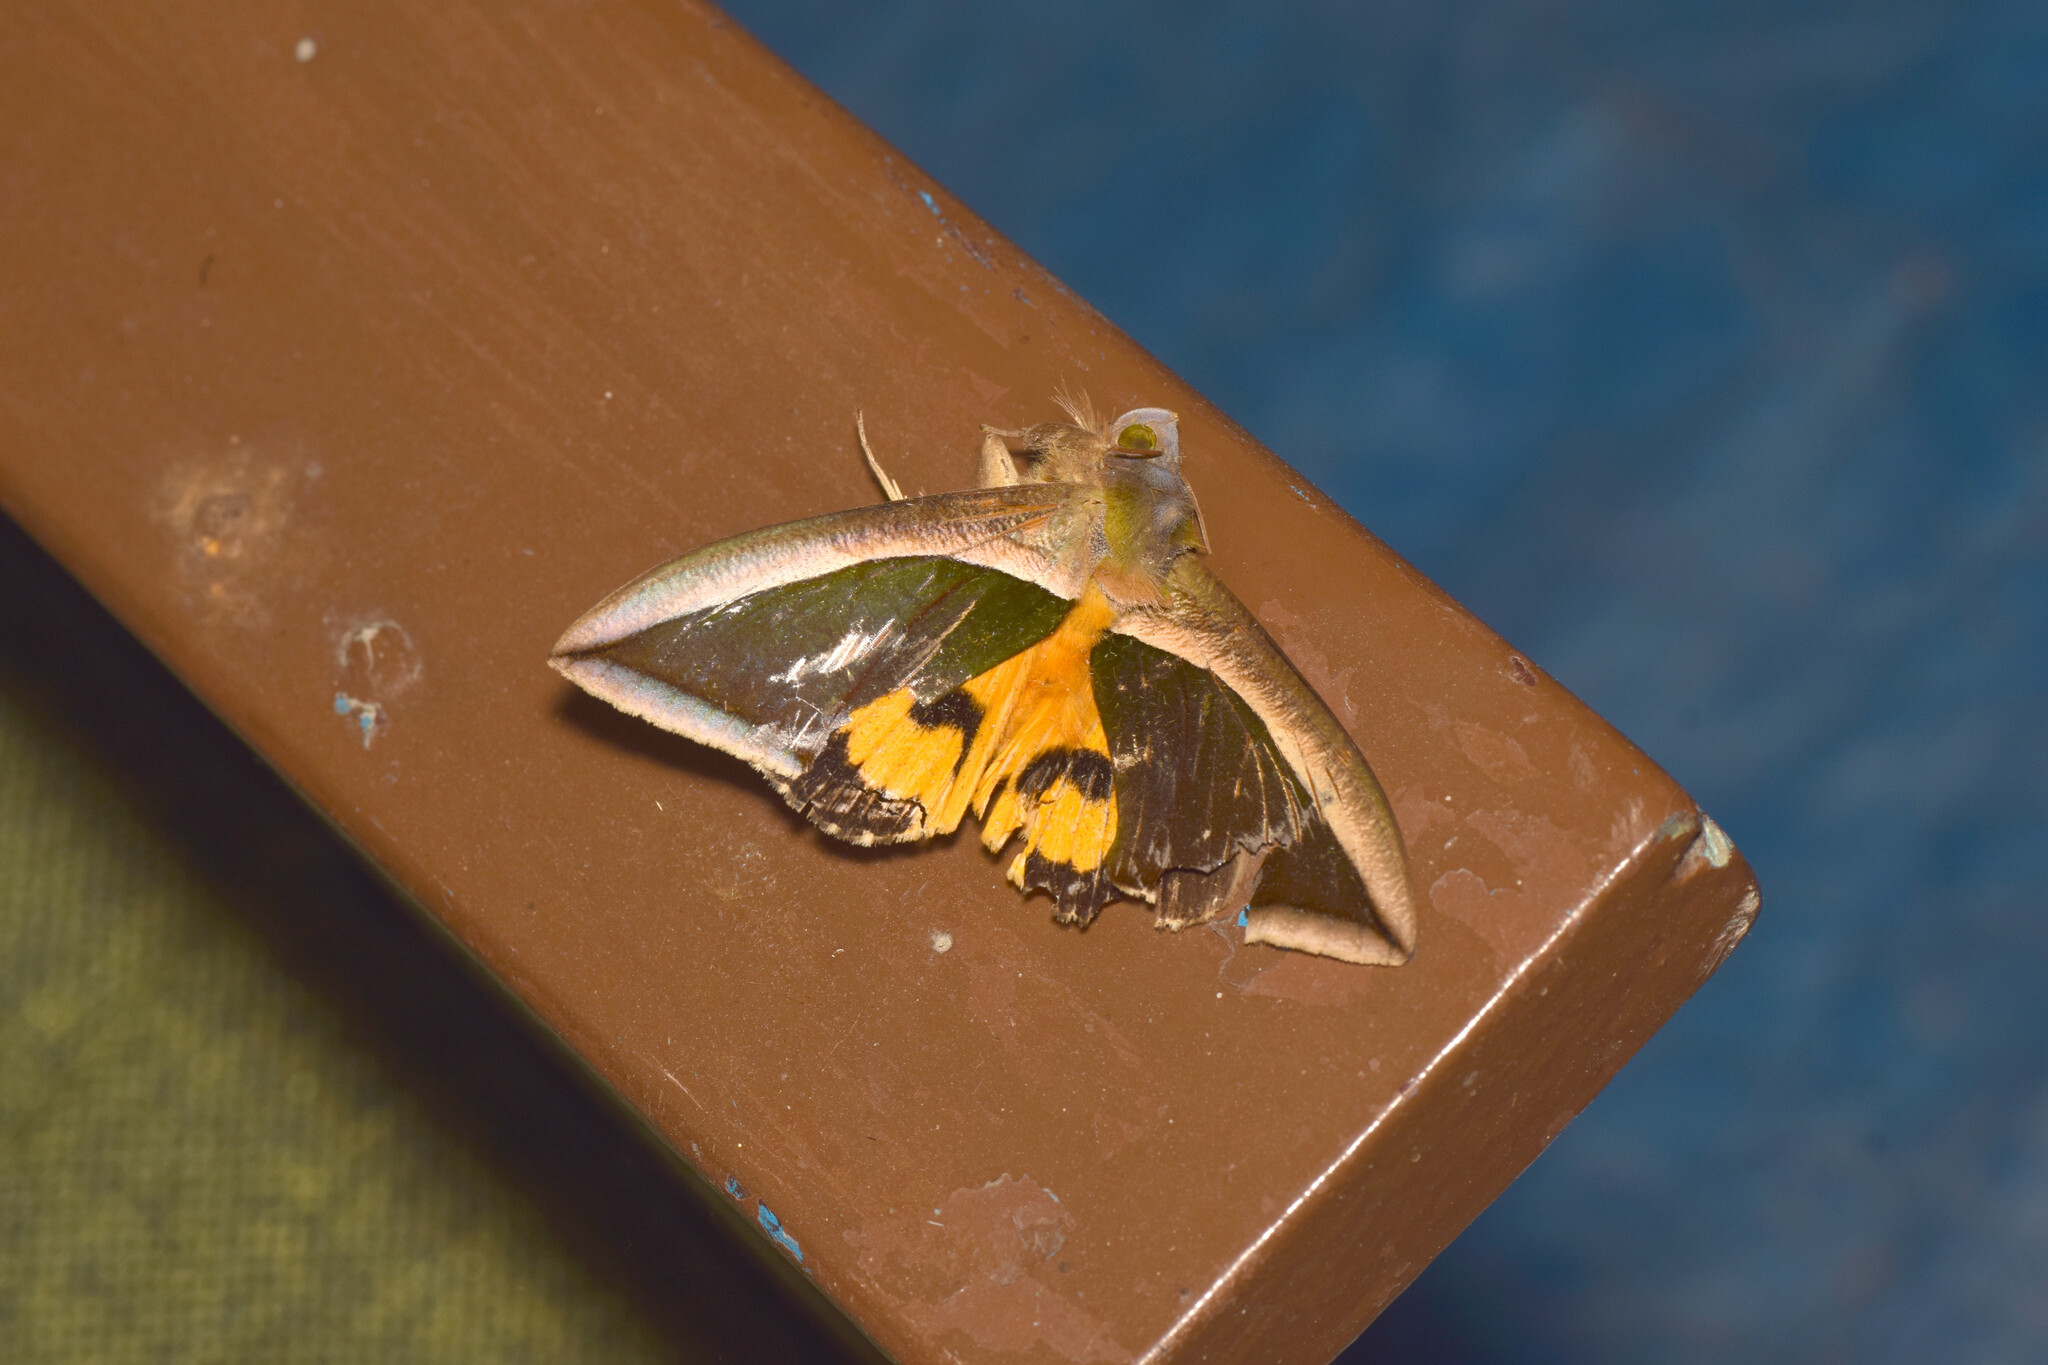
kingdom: Animalia
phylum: Arthropoda
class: Insecta
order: Lepidoptera
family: Erebidae
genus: Eudocima
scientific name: Eudocima salaminia
